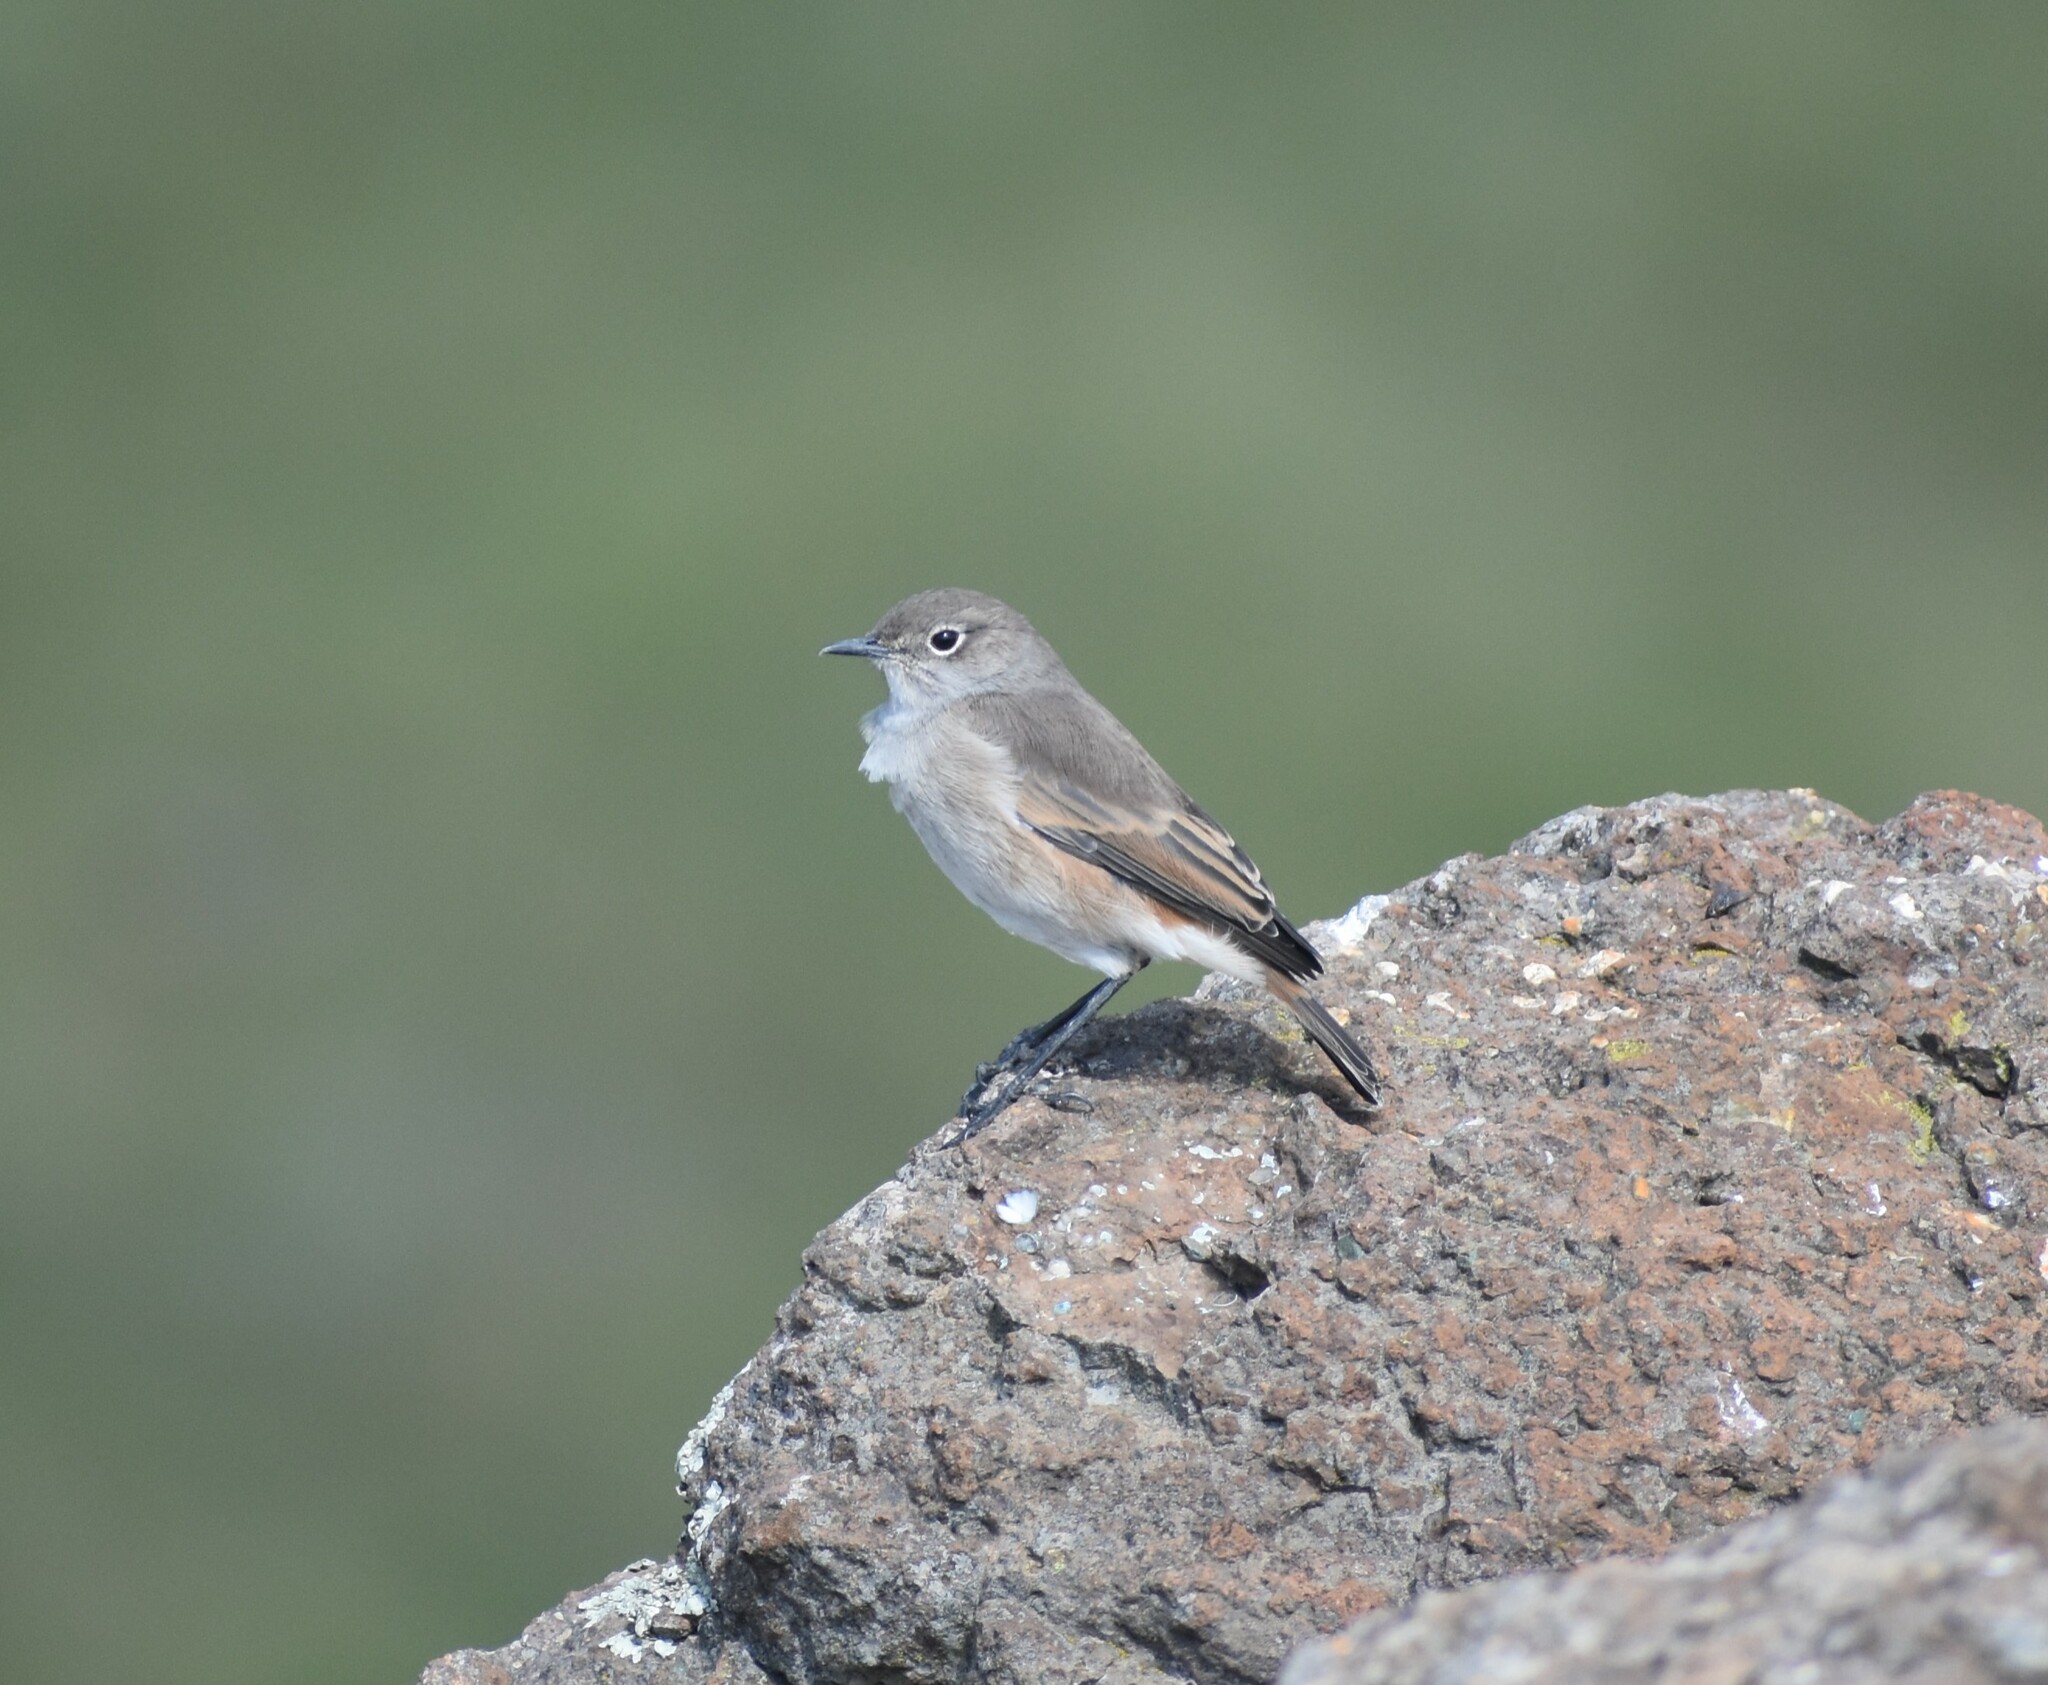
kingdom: Animalia
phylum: Chordata
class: Aves
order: Passeriformes
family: Muscicapidae
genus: Emarginata
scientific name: Emarginata sinuata
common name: Sickle-winged chat
